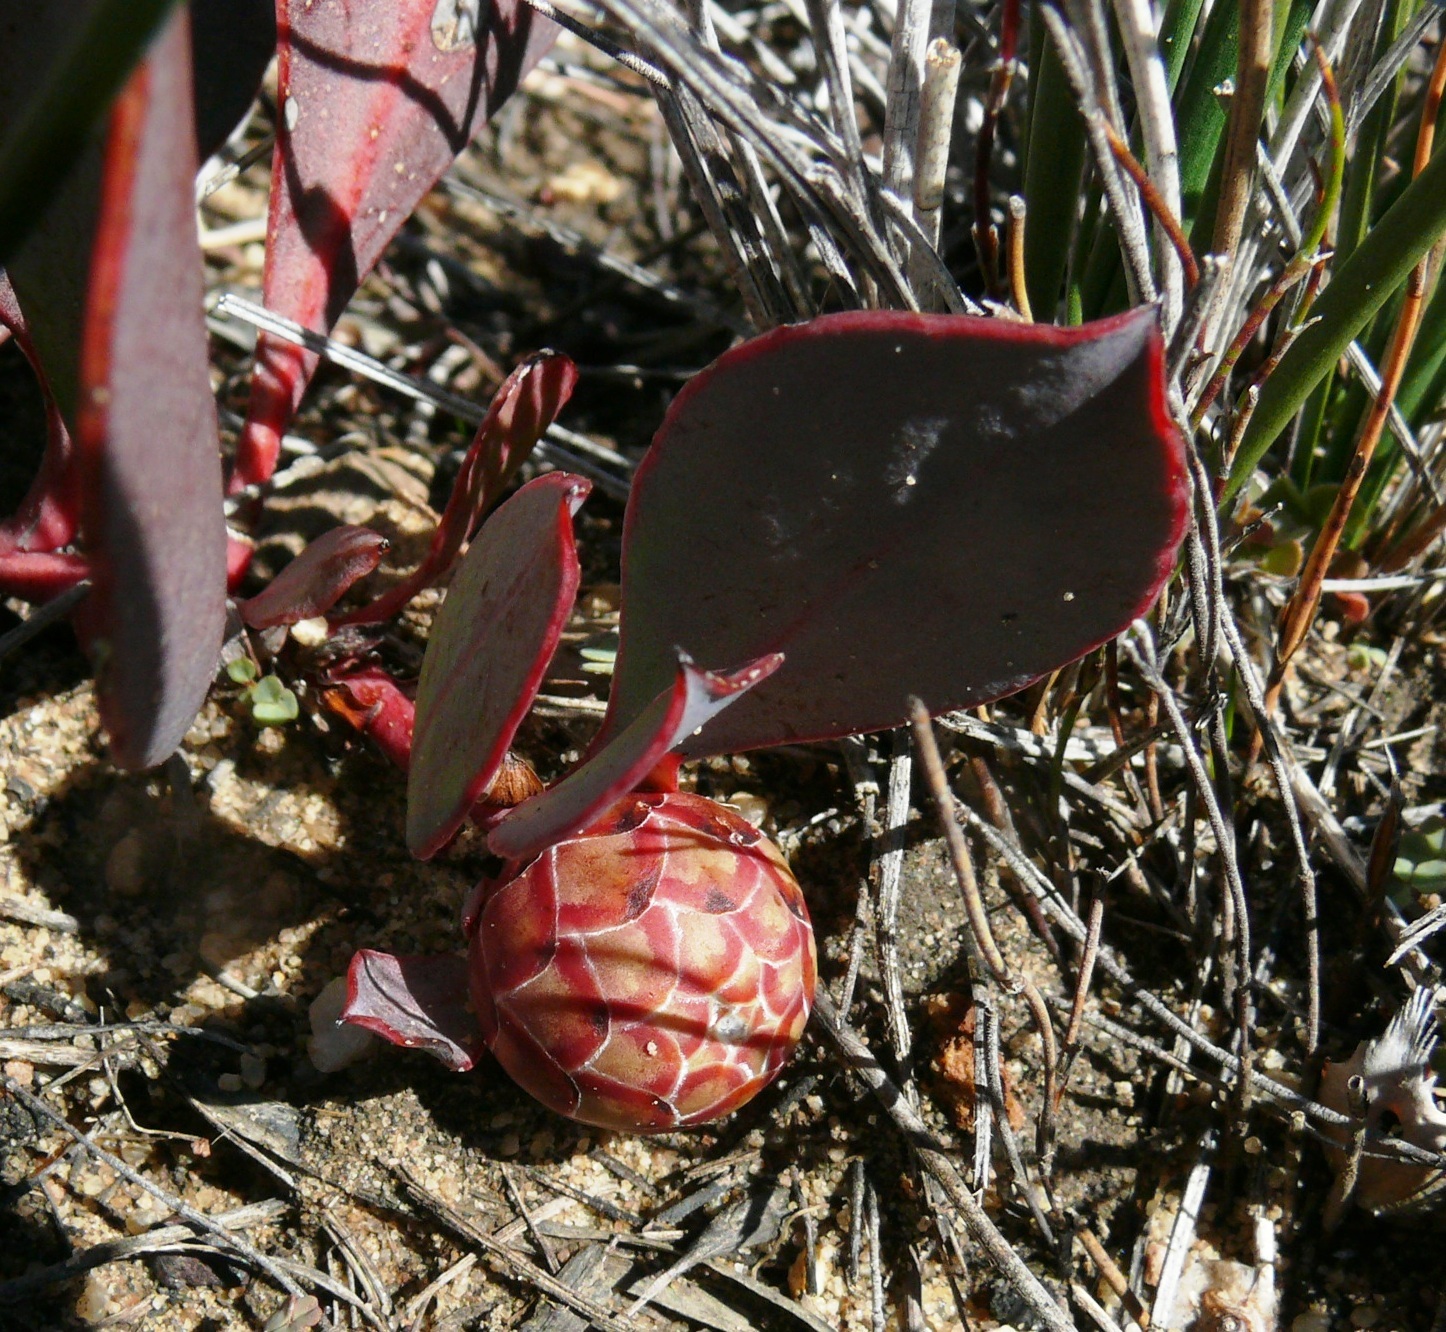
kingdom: Plantae
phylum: Tracheophyta
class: Magnoliopsida
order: Proteales
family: Proteaceae
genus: Protea
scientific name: Protea acaulos
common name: Common ground sugarbush
